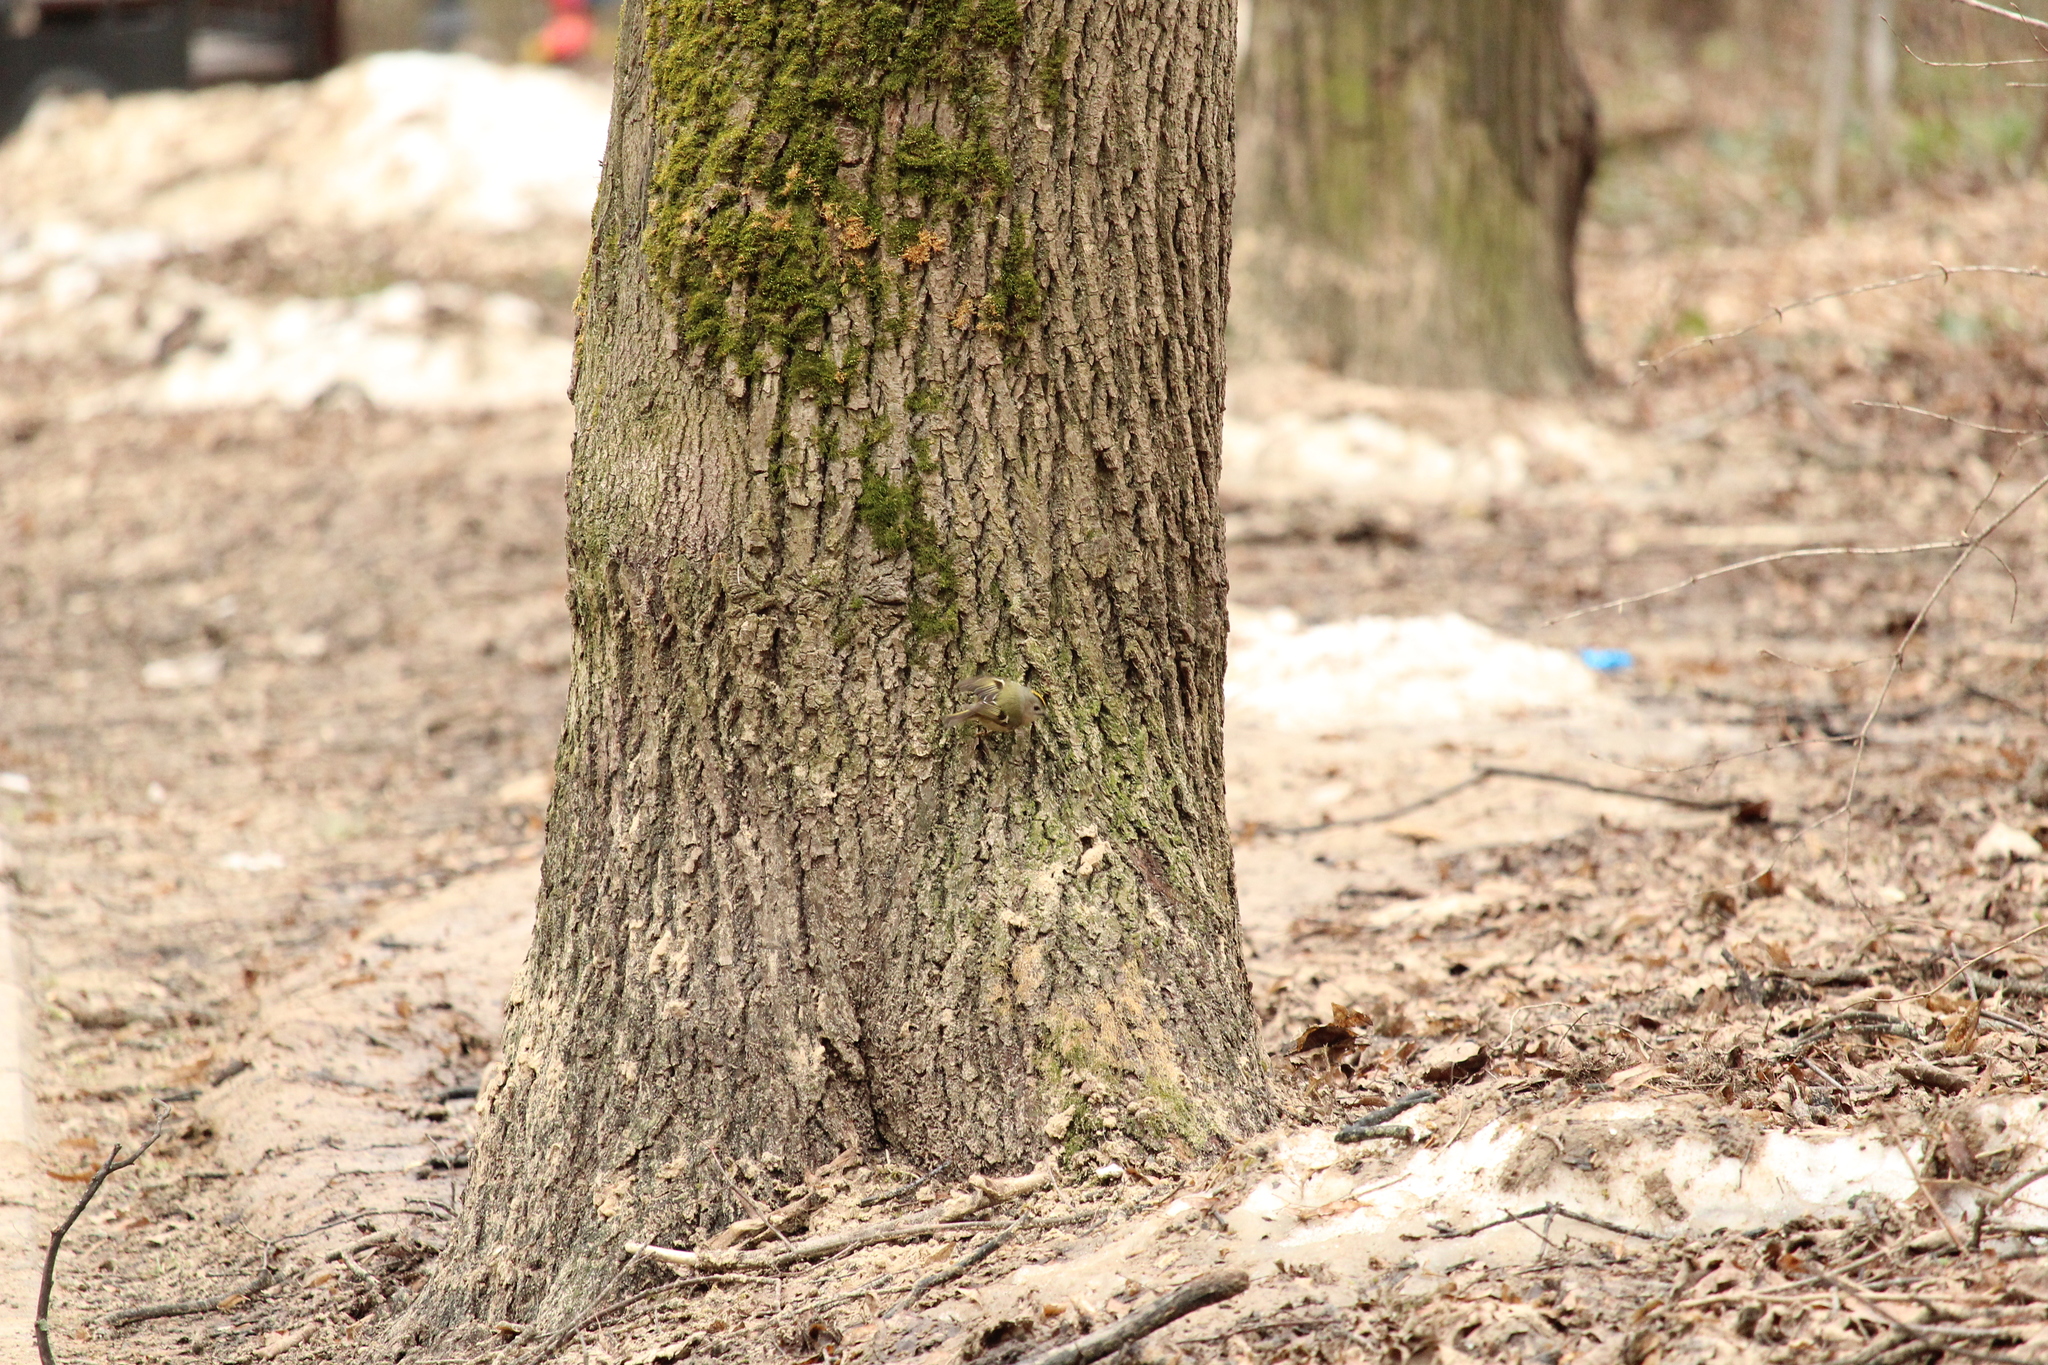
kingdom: Animalia
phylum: Chordata
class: Aves
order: Passeriformes
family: Regulidae
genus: Regulus
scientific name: Regulus regulus
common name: Goldcrest
